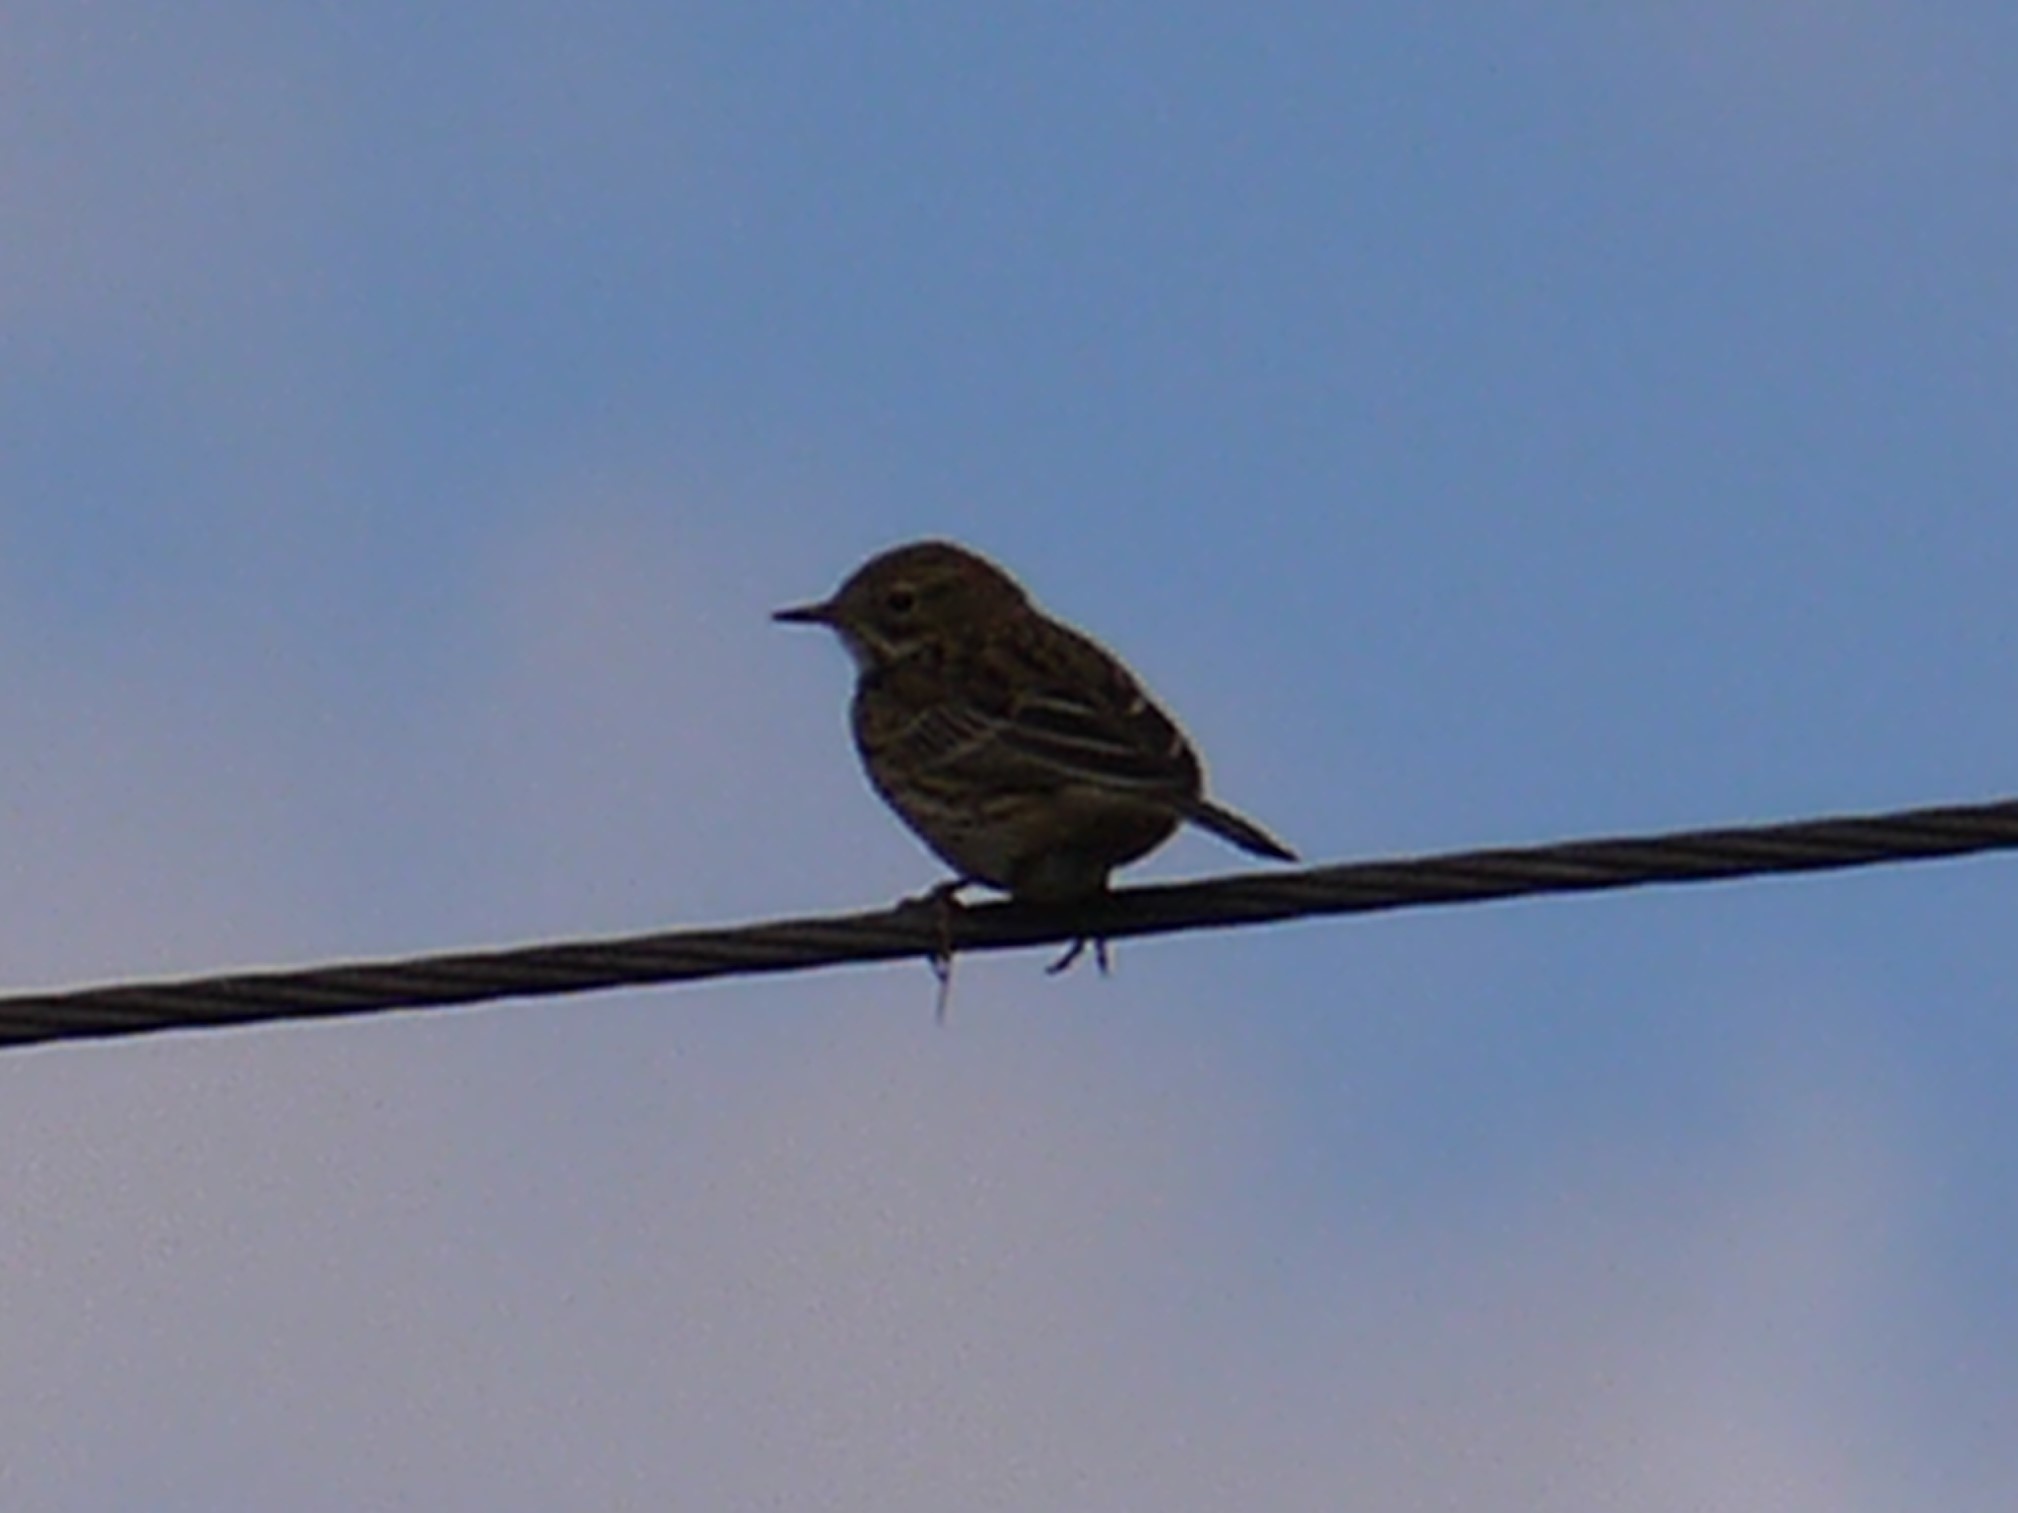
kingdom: Animalia
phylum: Chordata
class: Aves
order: Passeriformes
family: Motacillidae
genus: Anthus
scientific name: Anthus pratensis
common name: Meadow pipit
